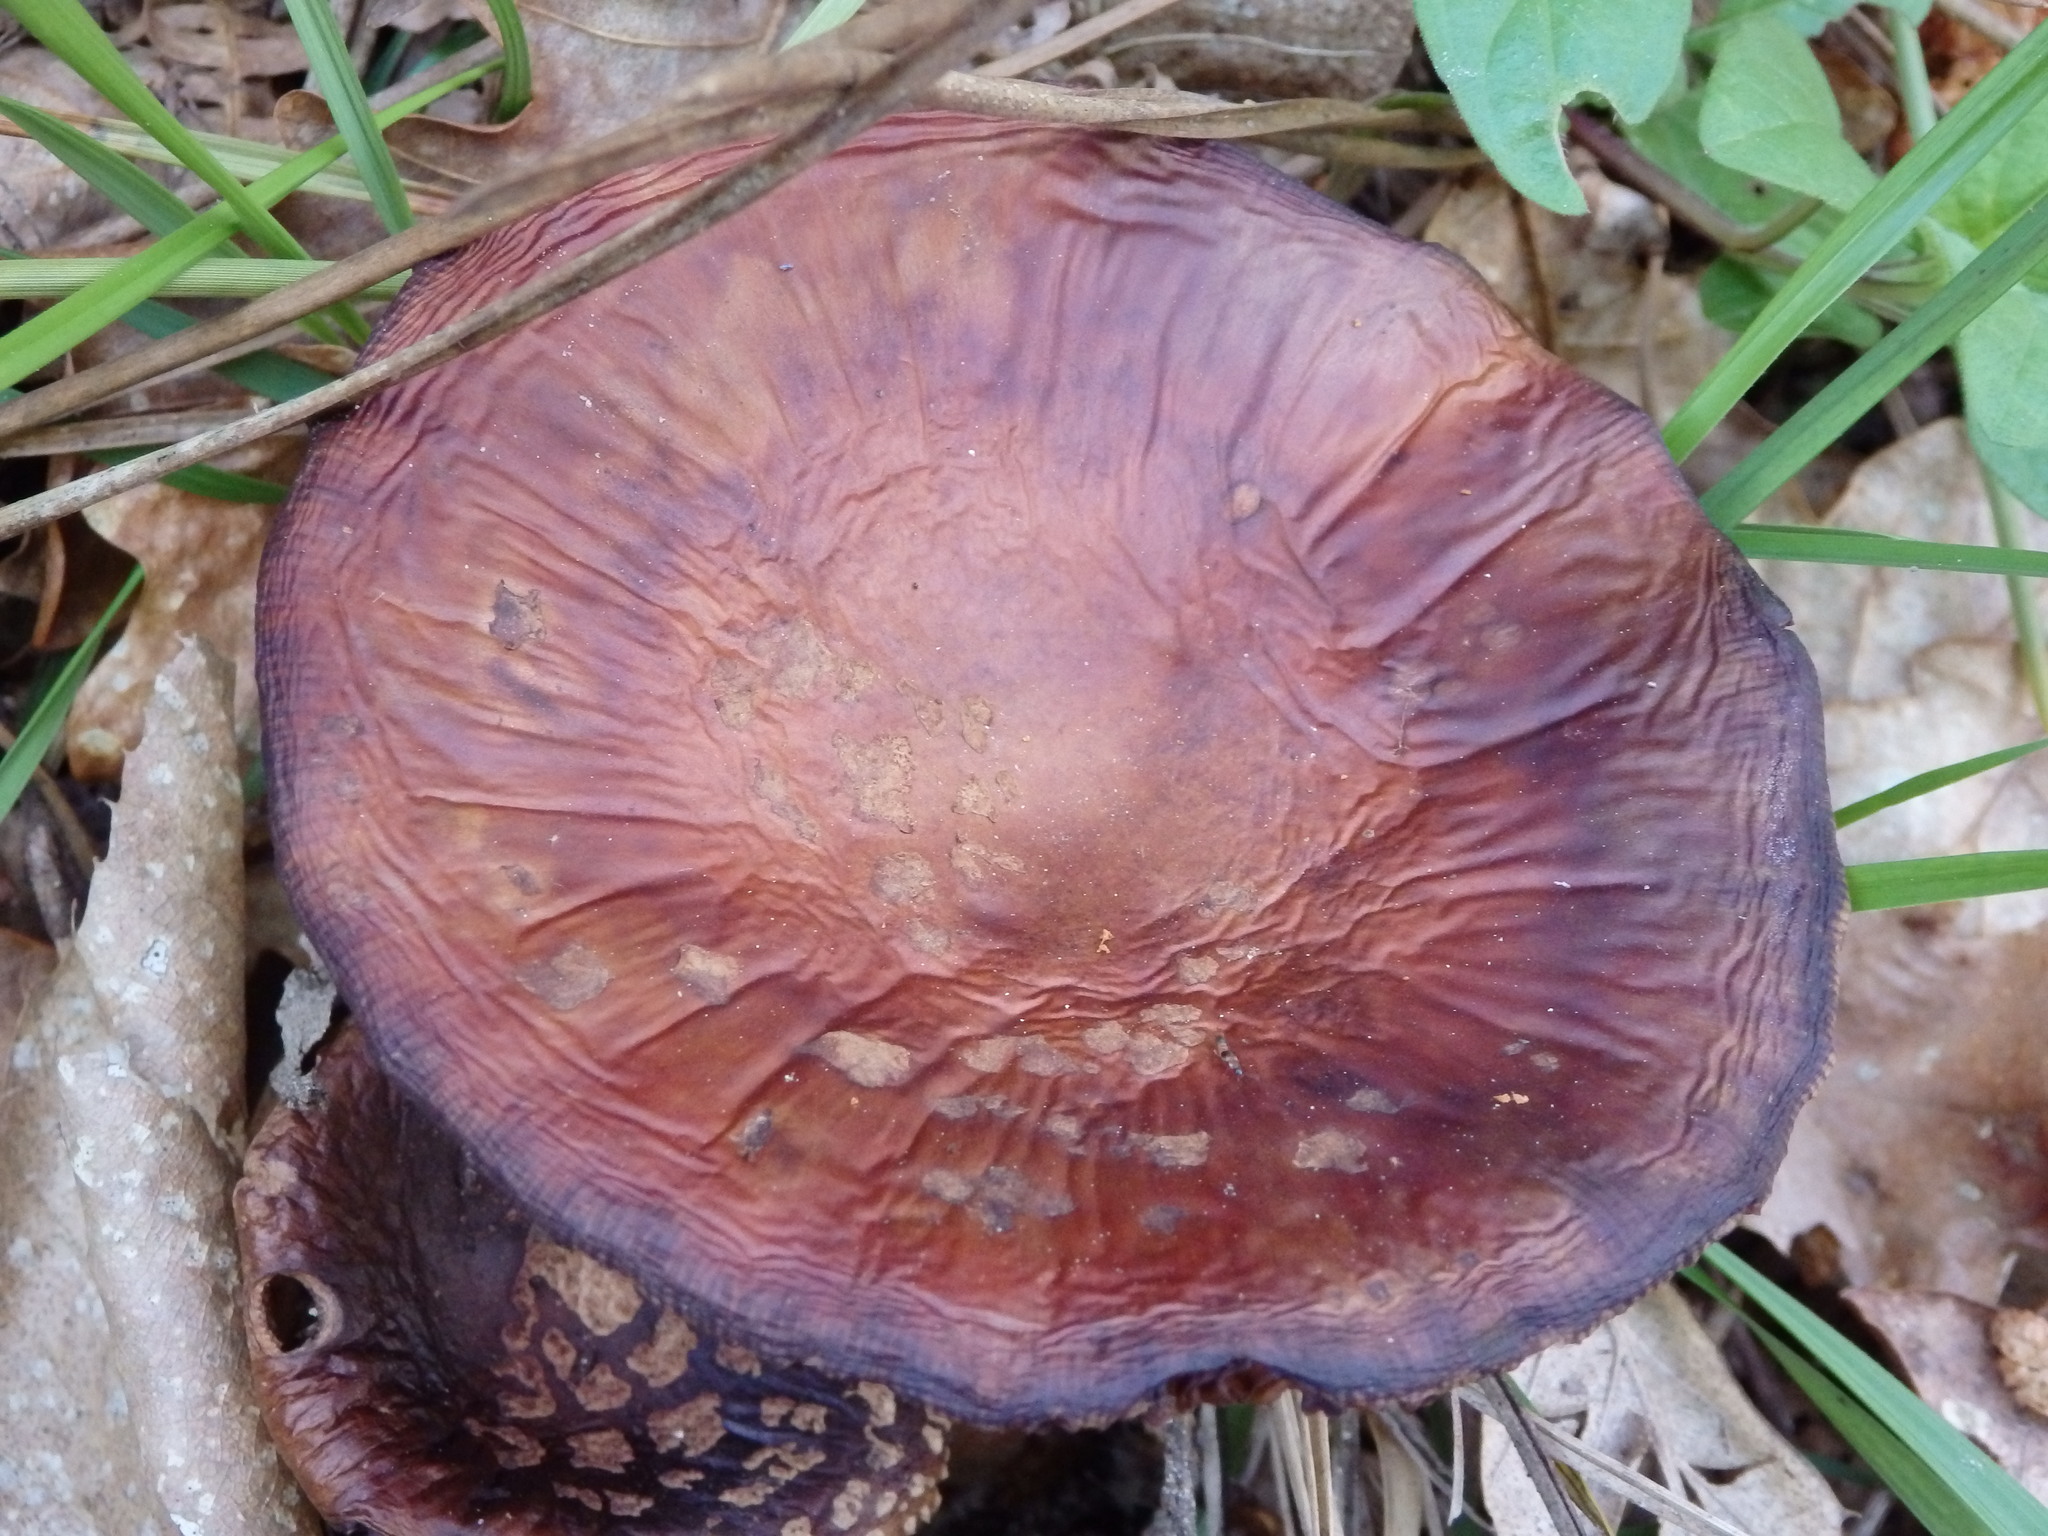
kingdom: Fungi
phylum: Basidiomycota
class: Agaricomycetes
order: Agaricales
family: Amanitaceae
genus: Amanita
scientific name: Amanita rubescens
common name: Blusher
